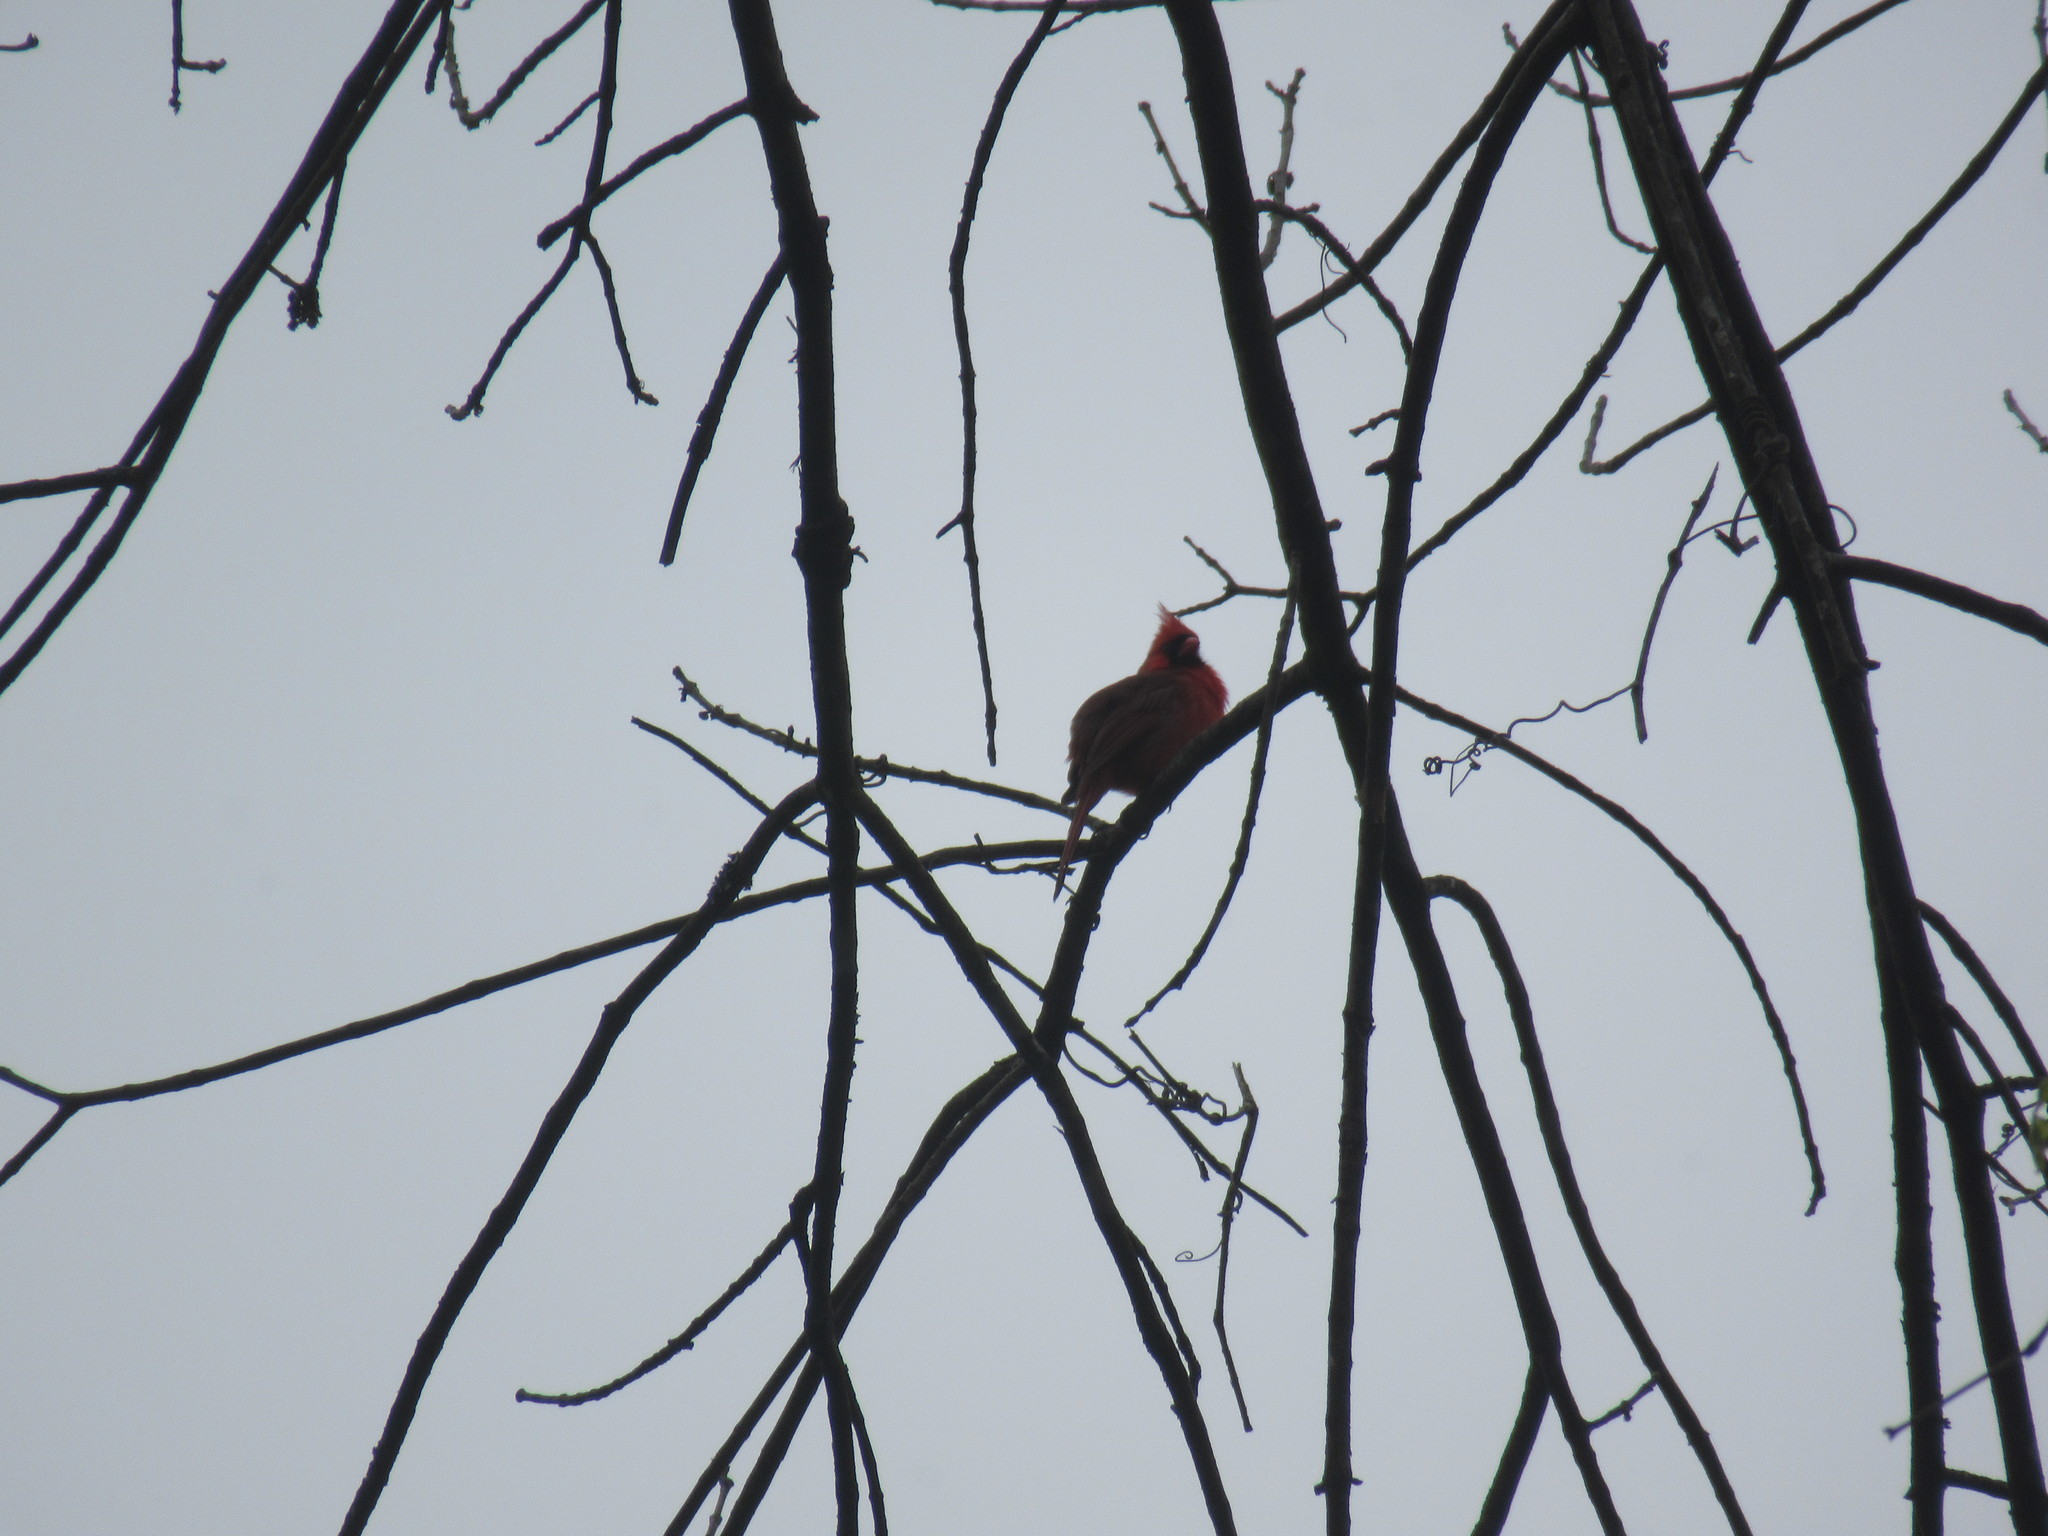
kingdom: Animalia
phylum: Chordata
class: Aves
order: Passeriformes
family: Cardinalidae
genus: Cardinalis
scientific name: Cardinalis cardinalis
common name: Northern cardinal
